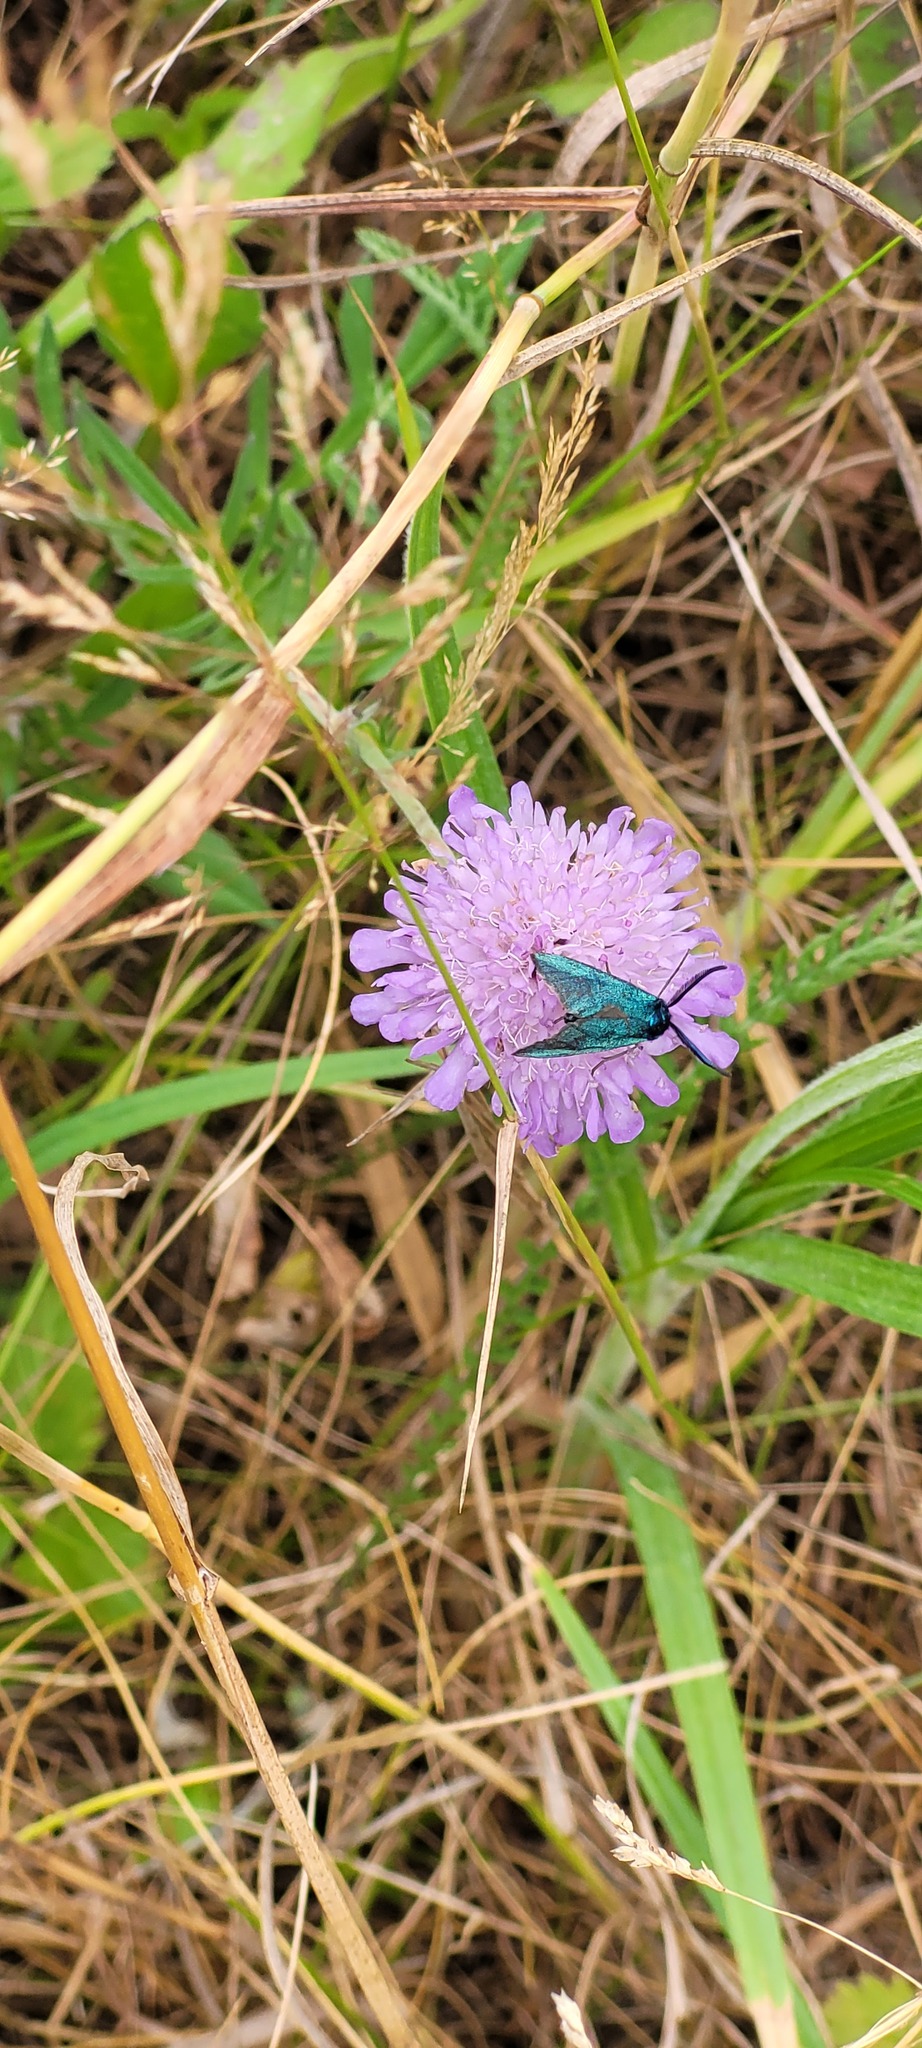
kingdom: Animalia
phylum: Arthropoda
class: Insecta
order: Lepidoptera
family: Zygaenidae
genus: Adscita
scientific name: Adscita statices
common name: Forester
